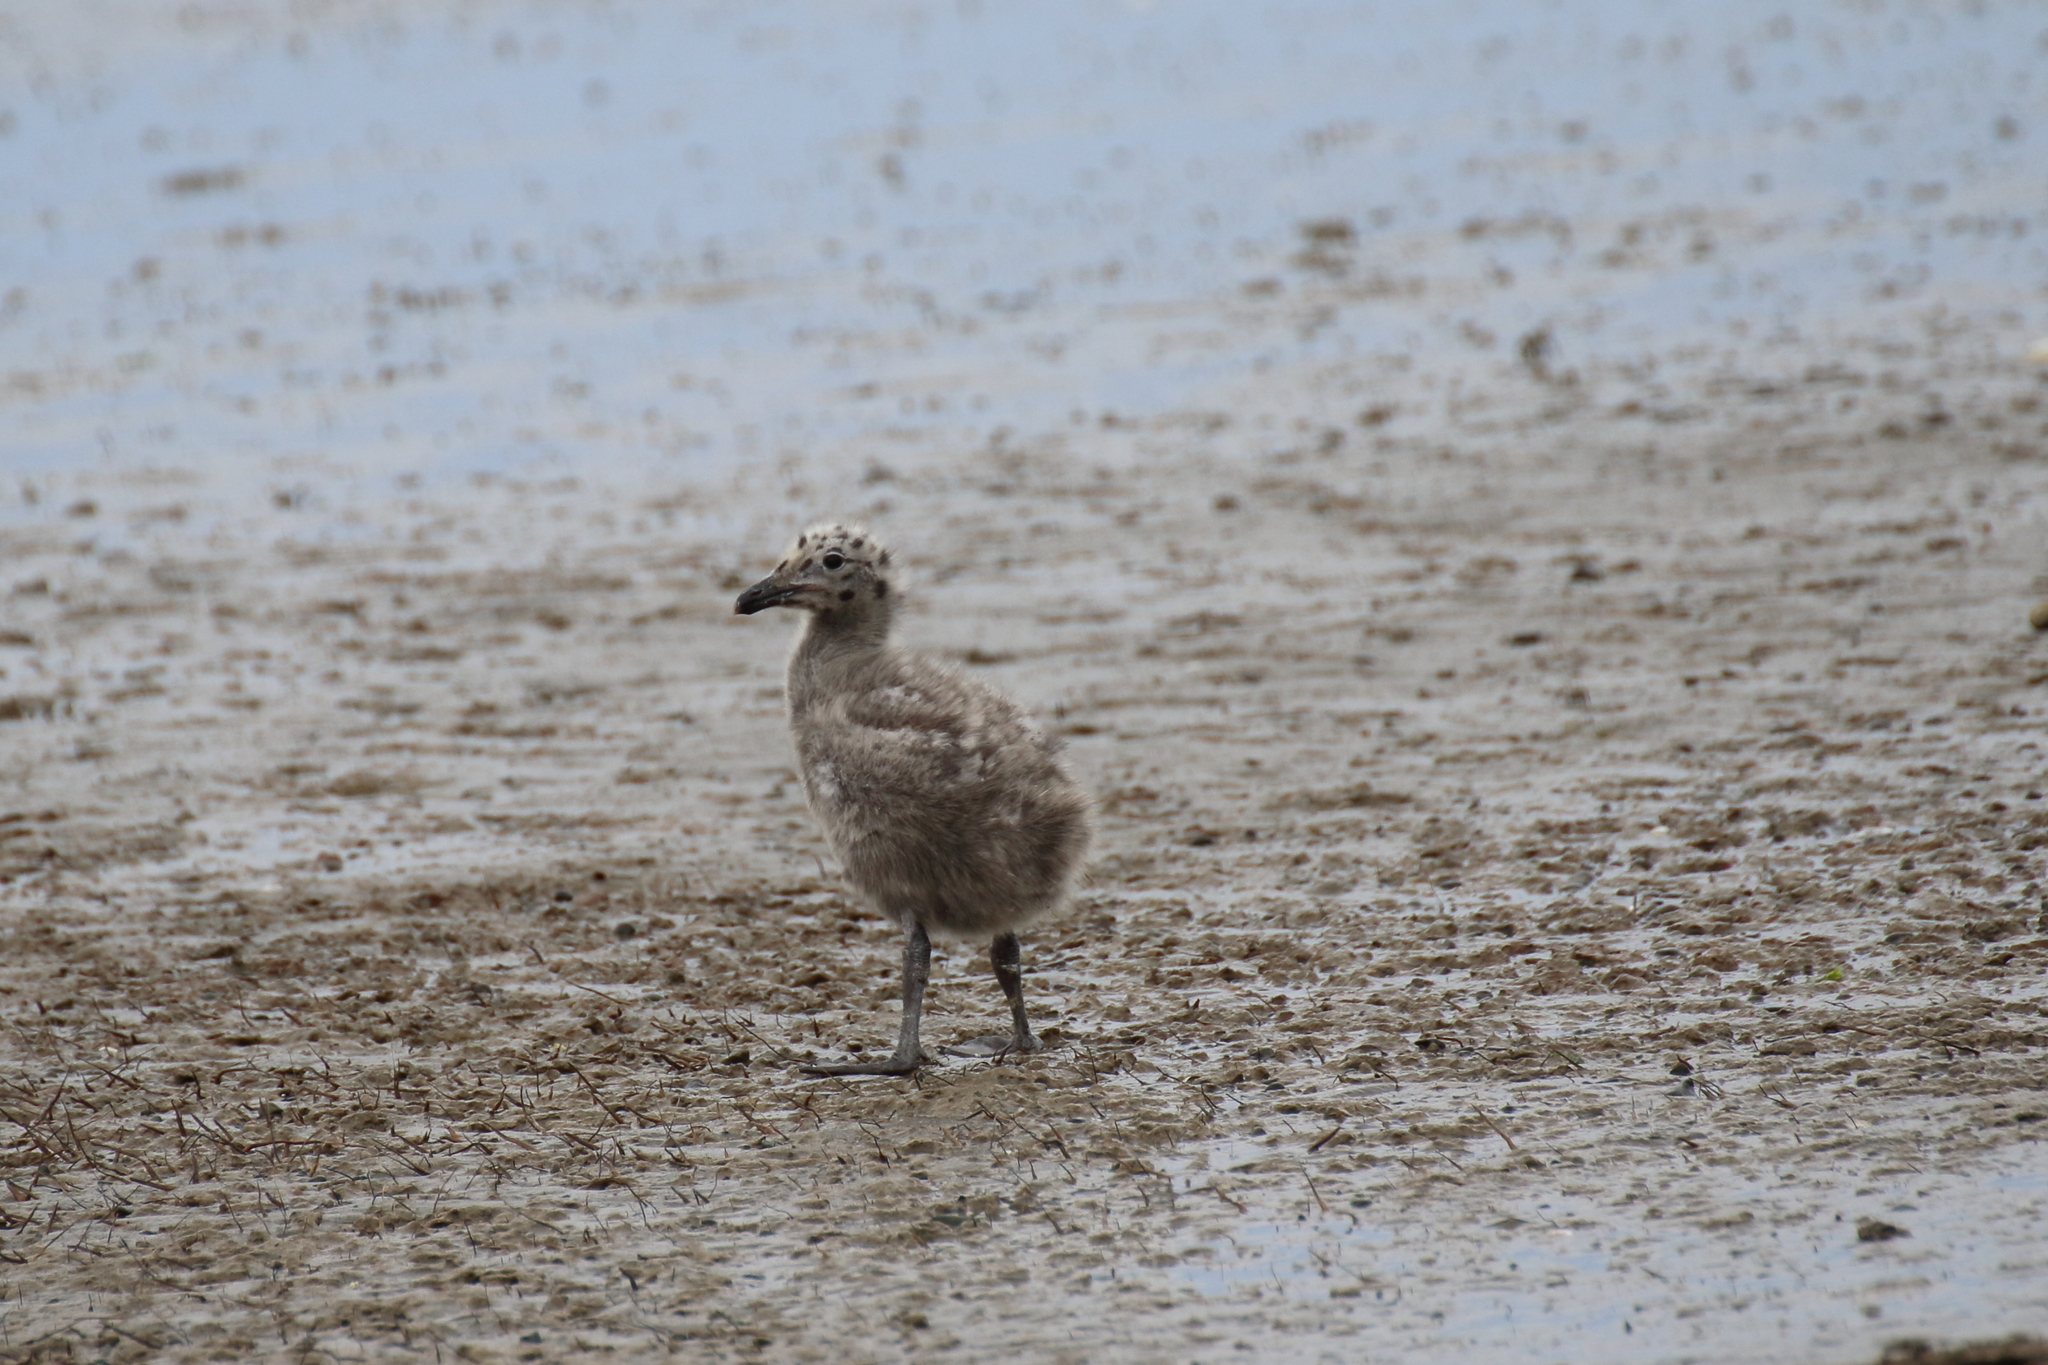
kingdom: Animalia
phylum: Chordata
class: Aves
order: Charadriiformes
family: Laridae
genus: Larus
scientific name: Larus dominicanus
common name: Kelp gull
